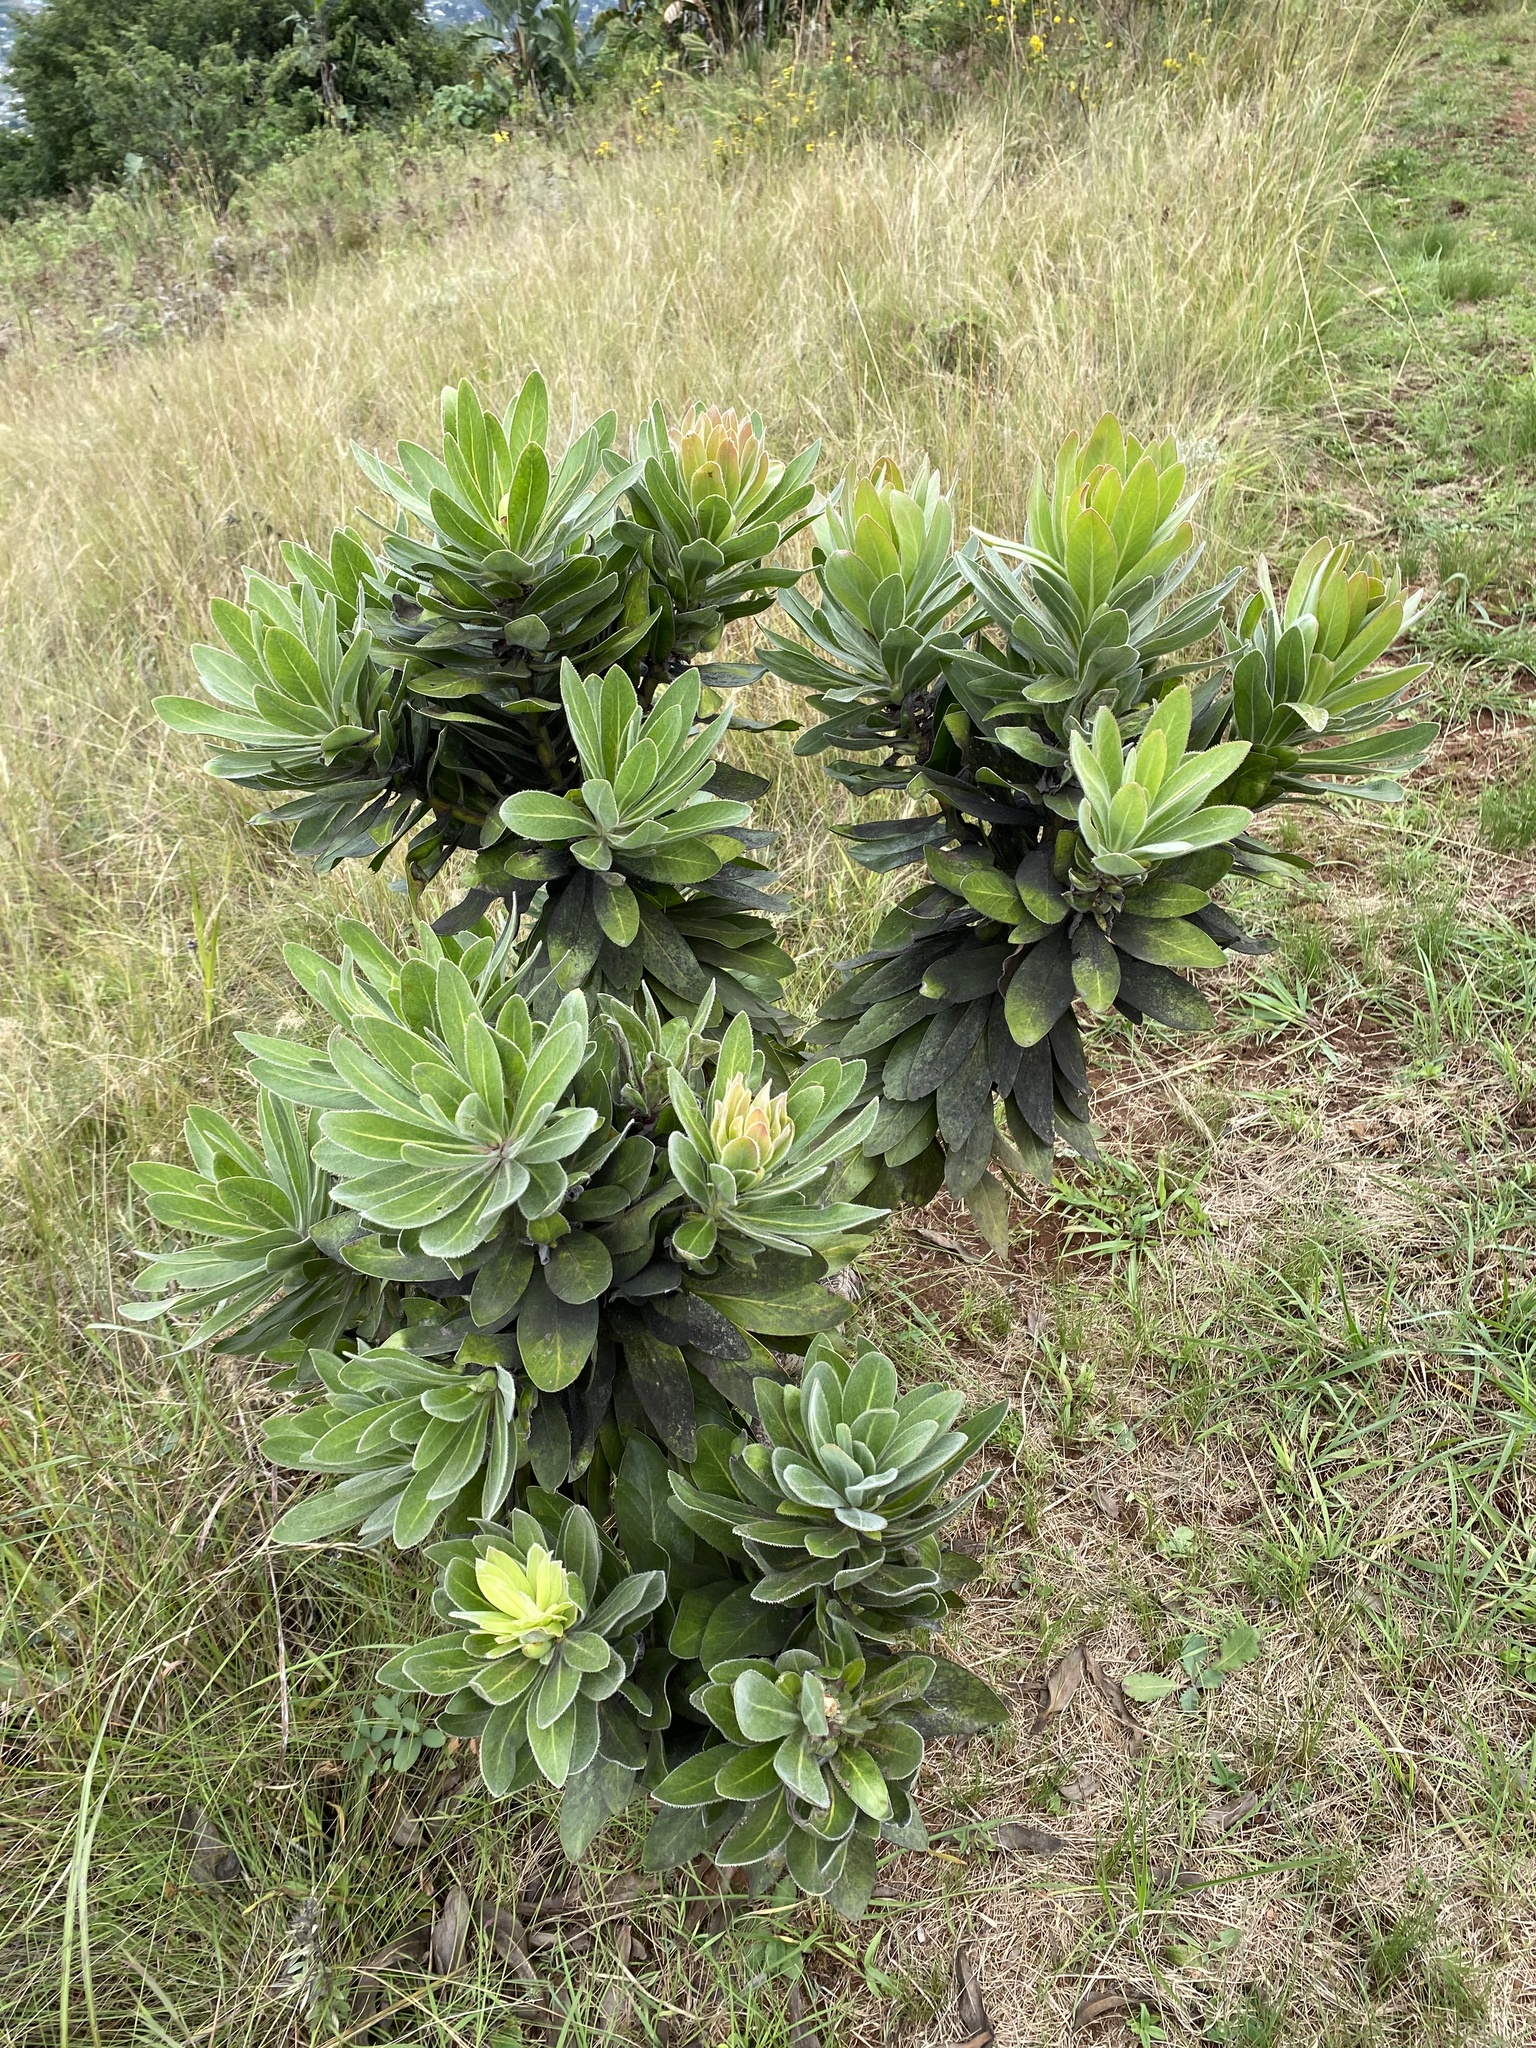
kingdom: Plantae
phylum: Tracheophyta
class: Magnoliopsida
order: Proteales
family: Proteaceae
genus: Protea
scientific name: Protea roupelliae
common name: Silver sugarbush
